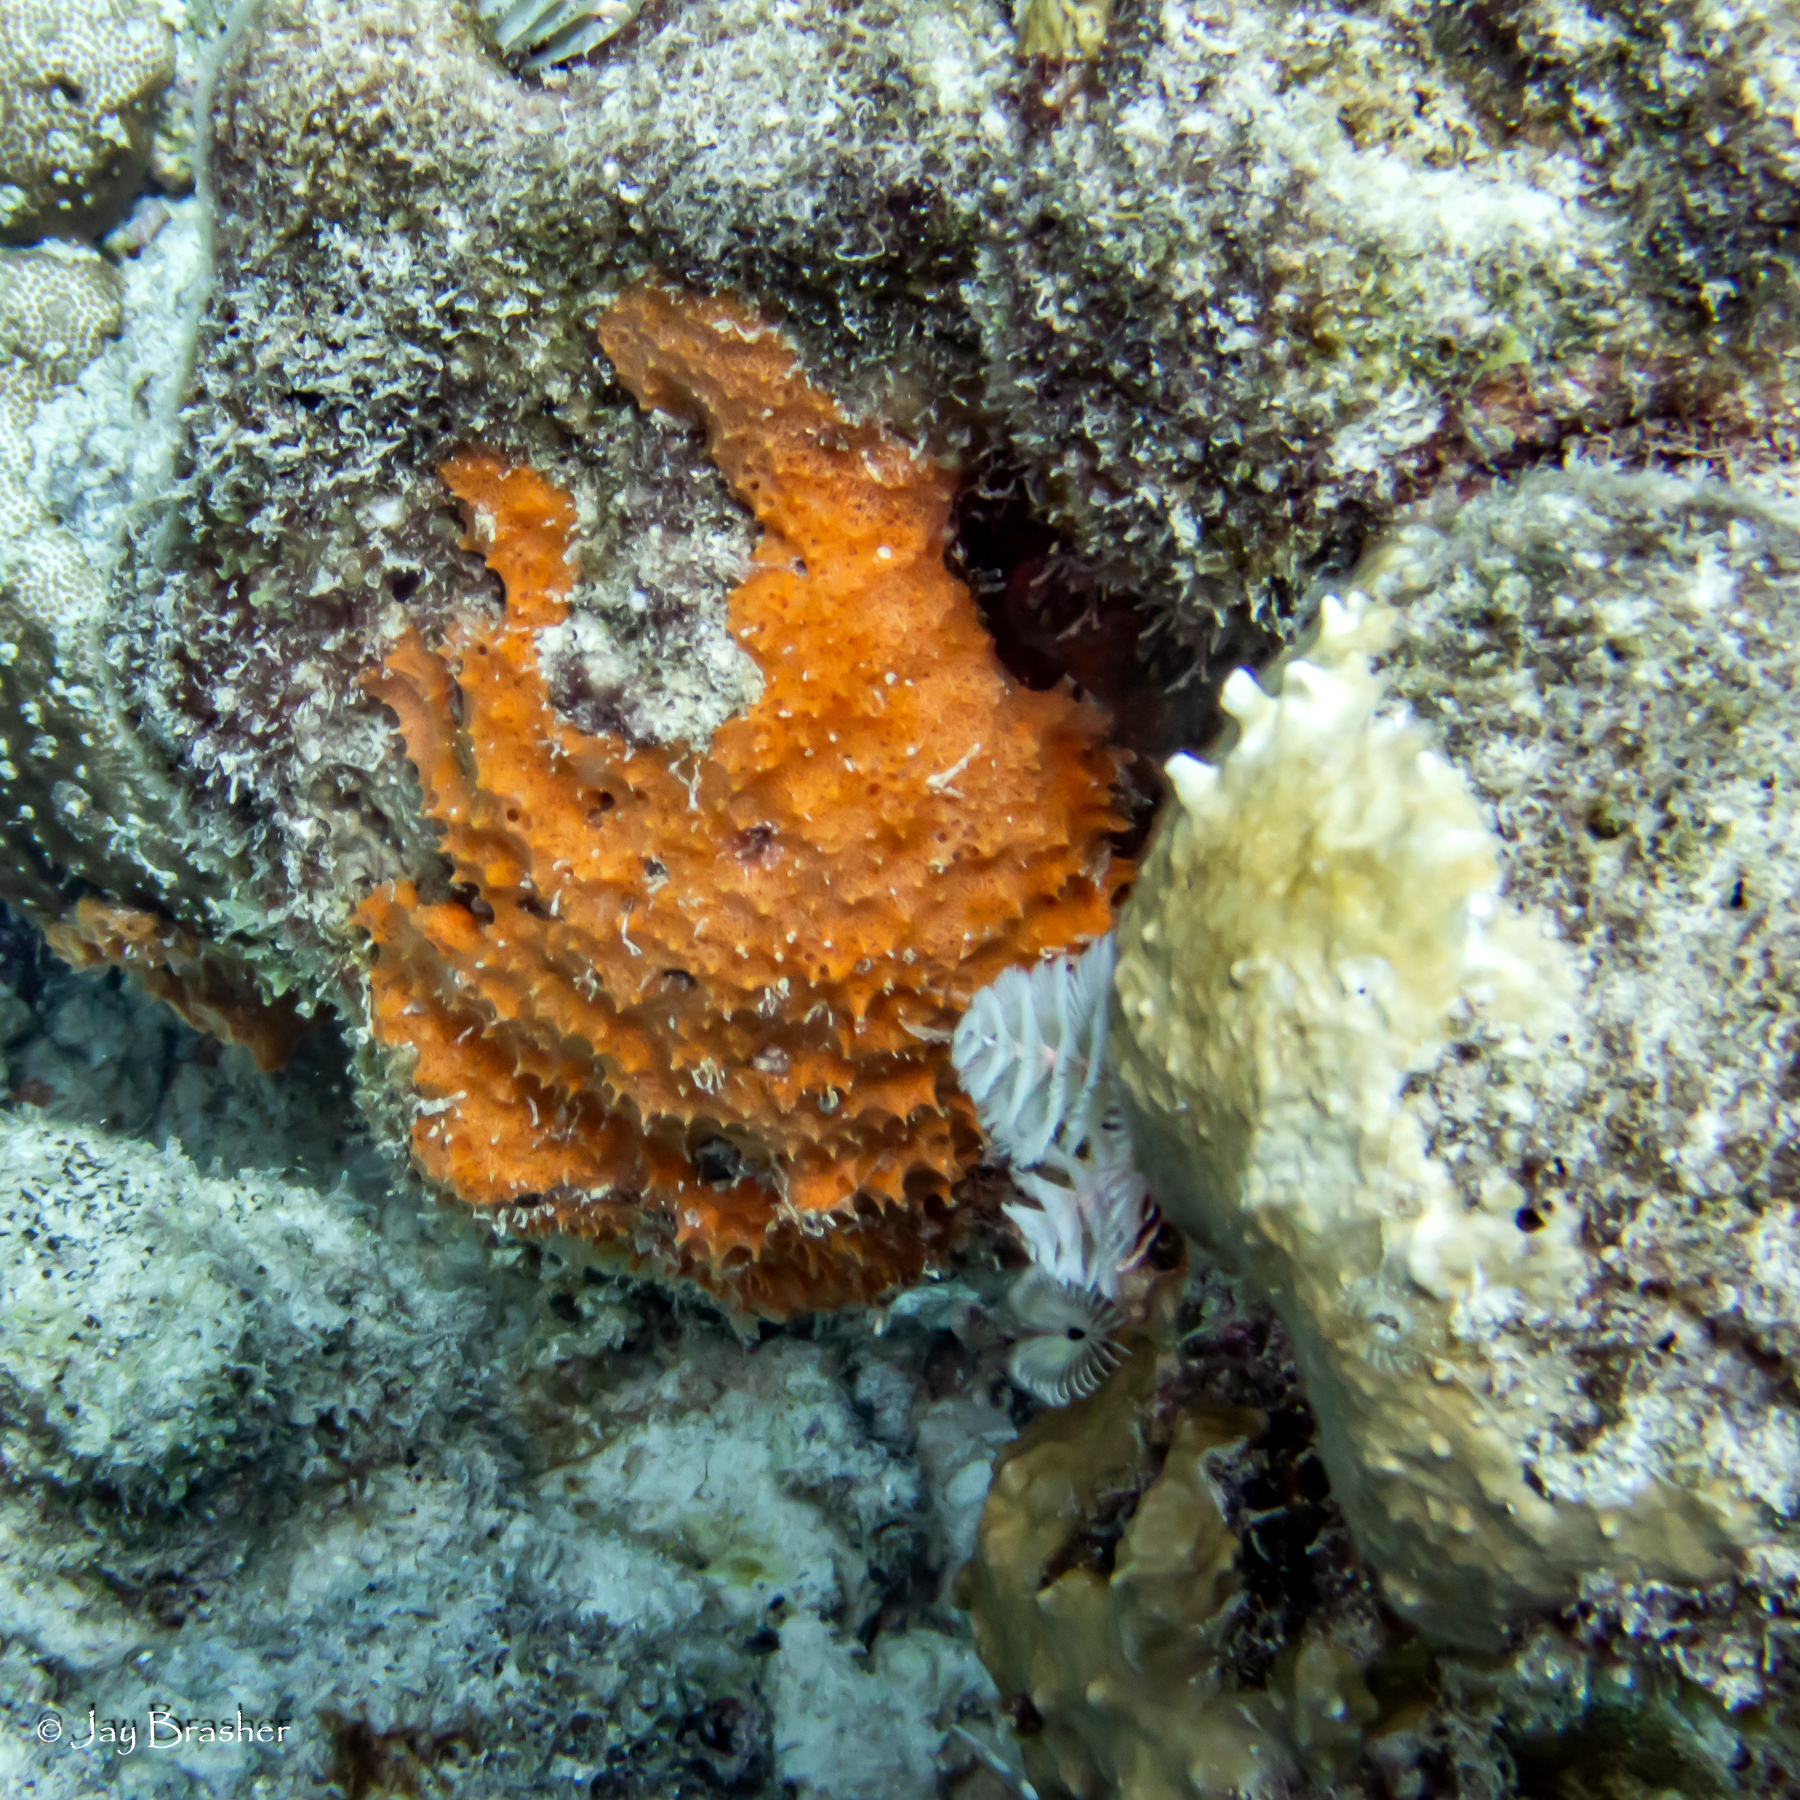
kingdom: Animalia
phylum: Porifera
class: Demospongiae
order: Scopalinida
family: Scopalinidae
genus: Scopalina
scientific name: Scopalina ruetzleri
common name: Orange lumpy encrusting sponge
